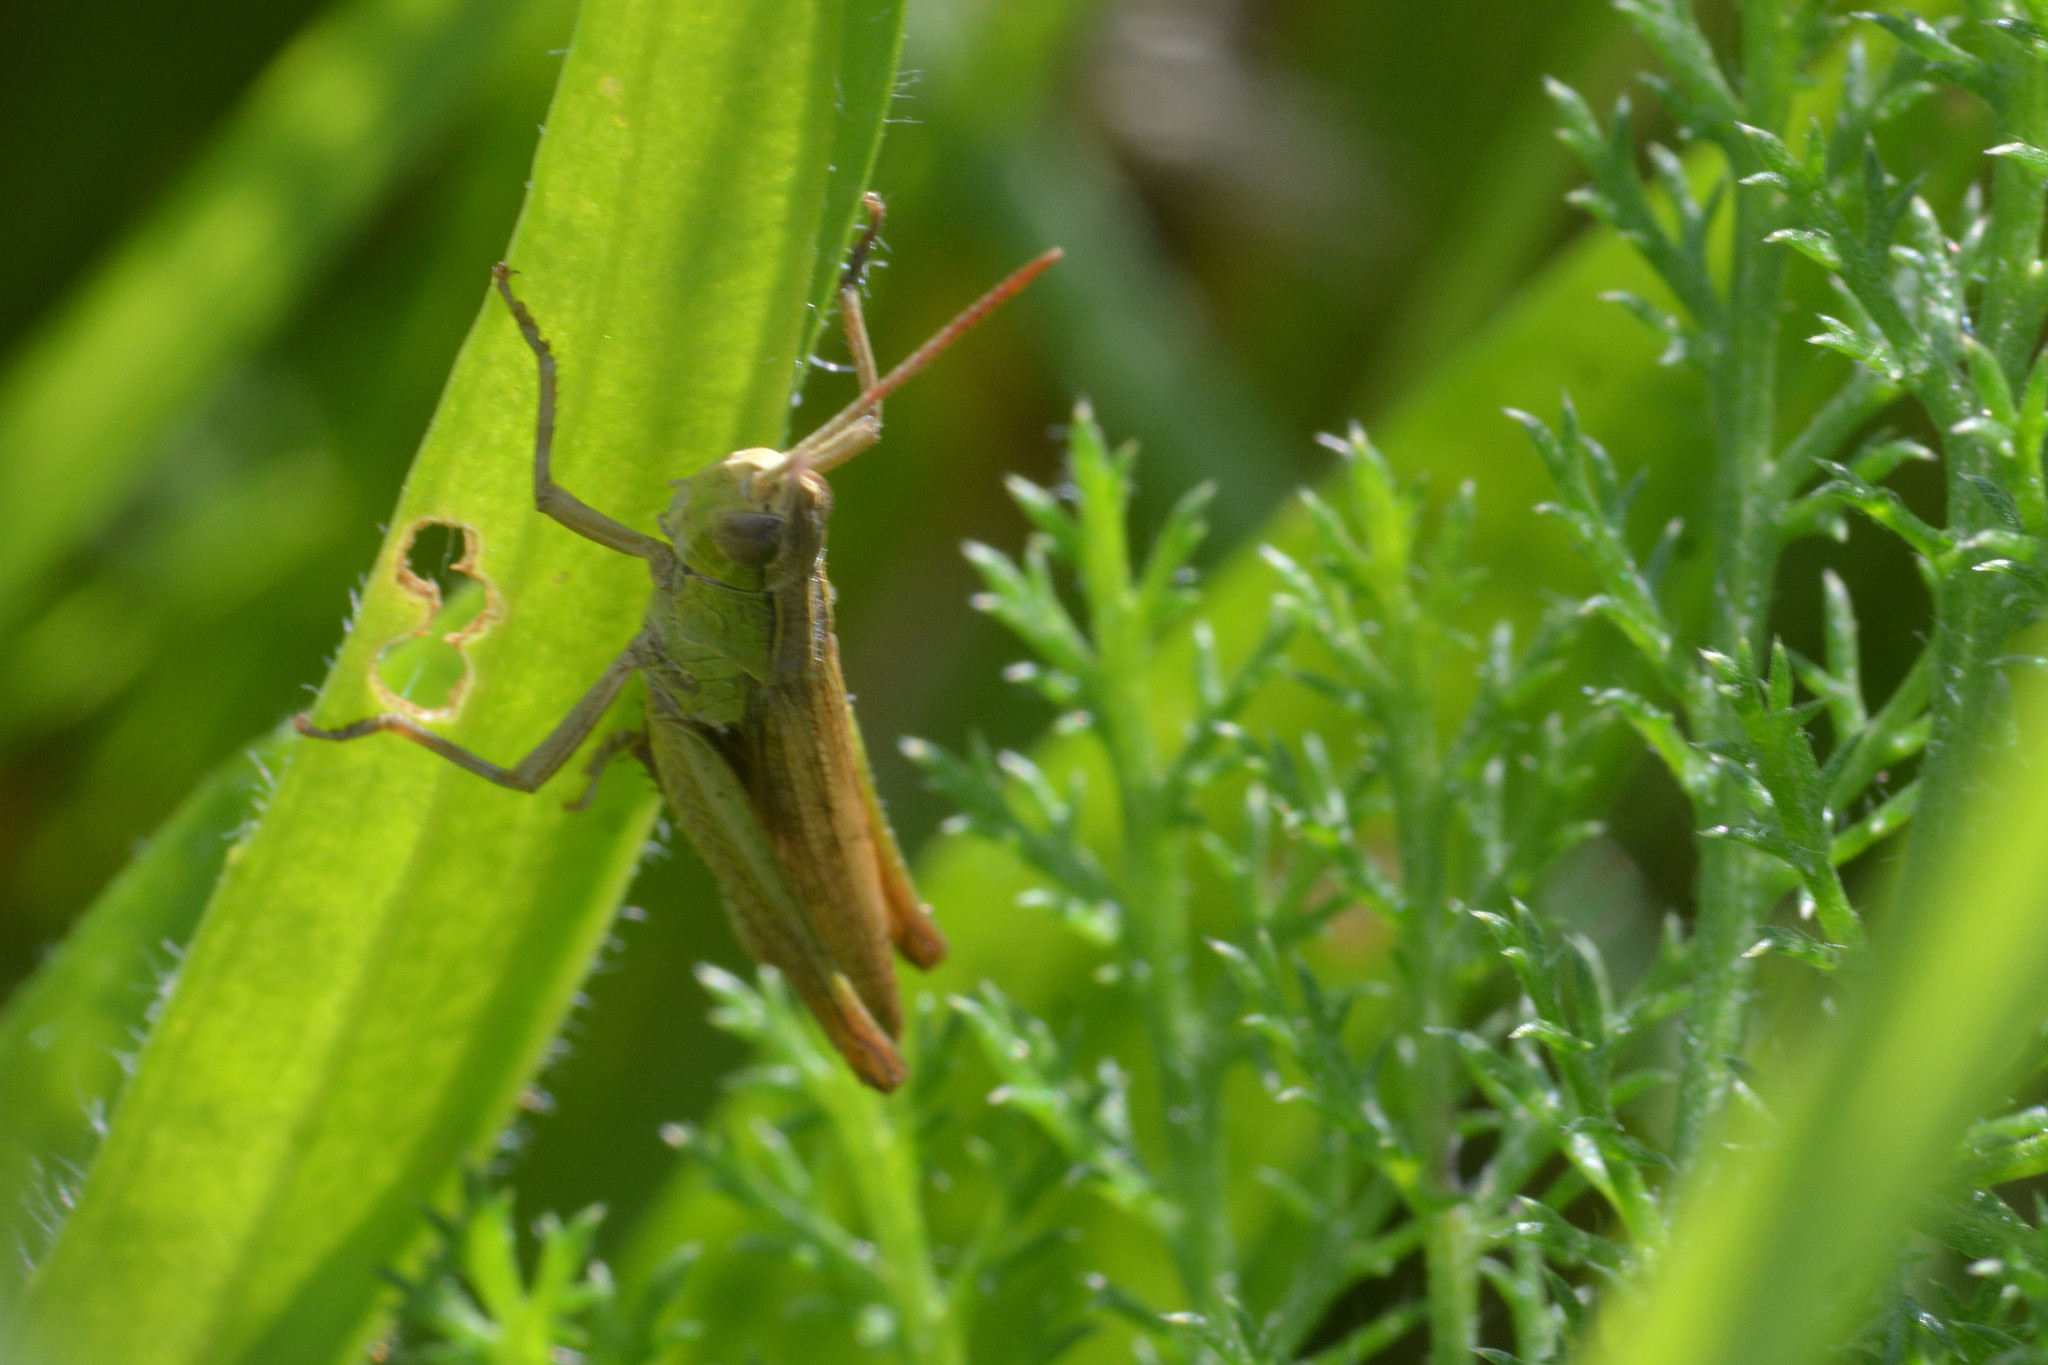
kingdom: Animalia
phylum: Arthropoda
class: Insecta
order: Orthoptera
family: Acrididae
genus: Chorthippus
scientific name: Chorthippus albomarginatus
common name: Lesser marsh grasshopper
